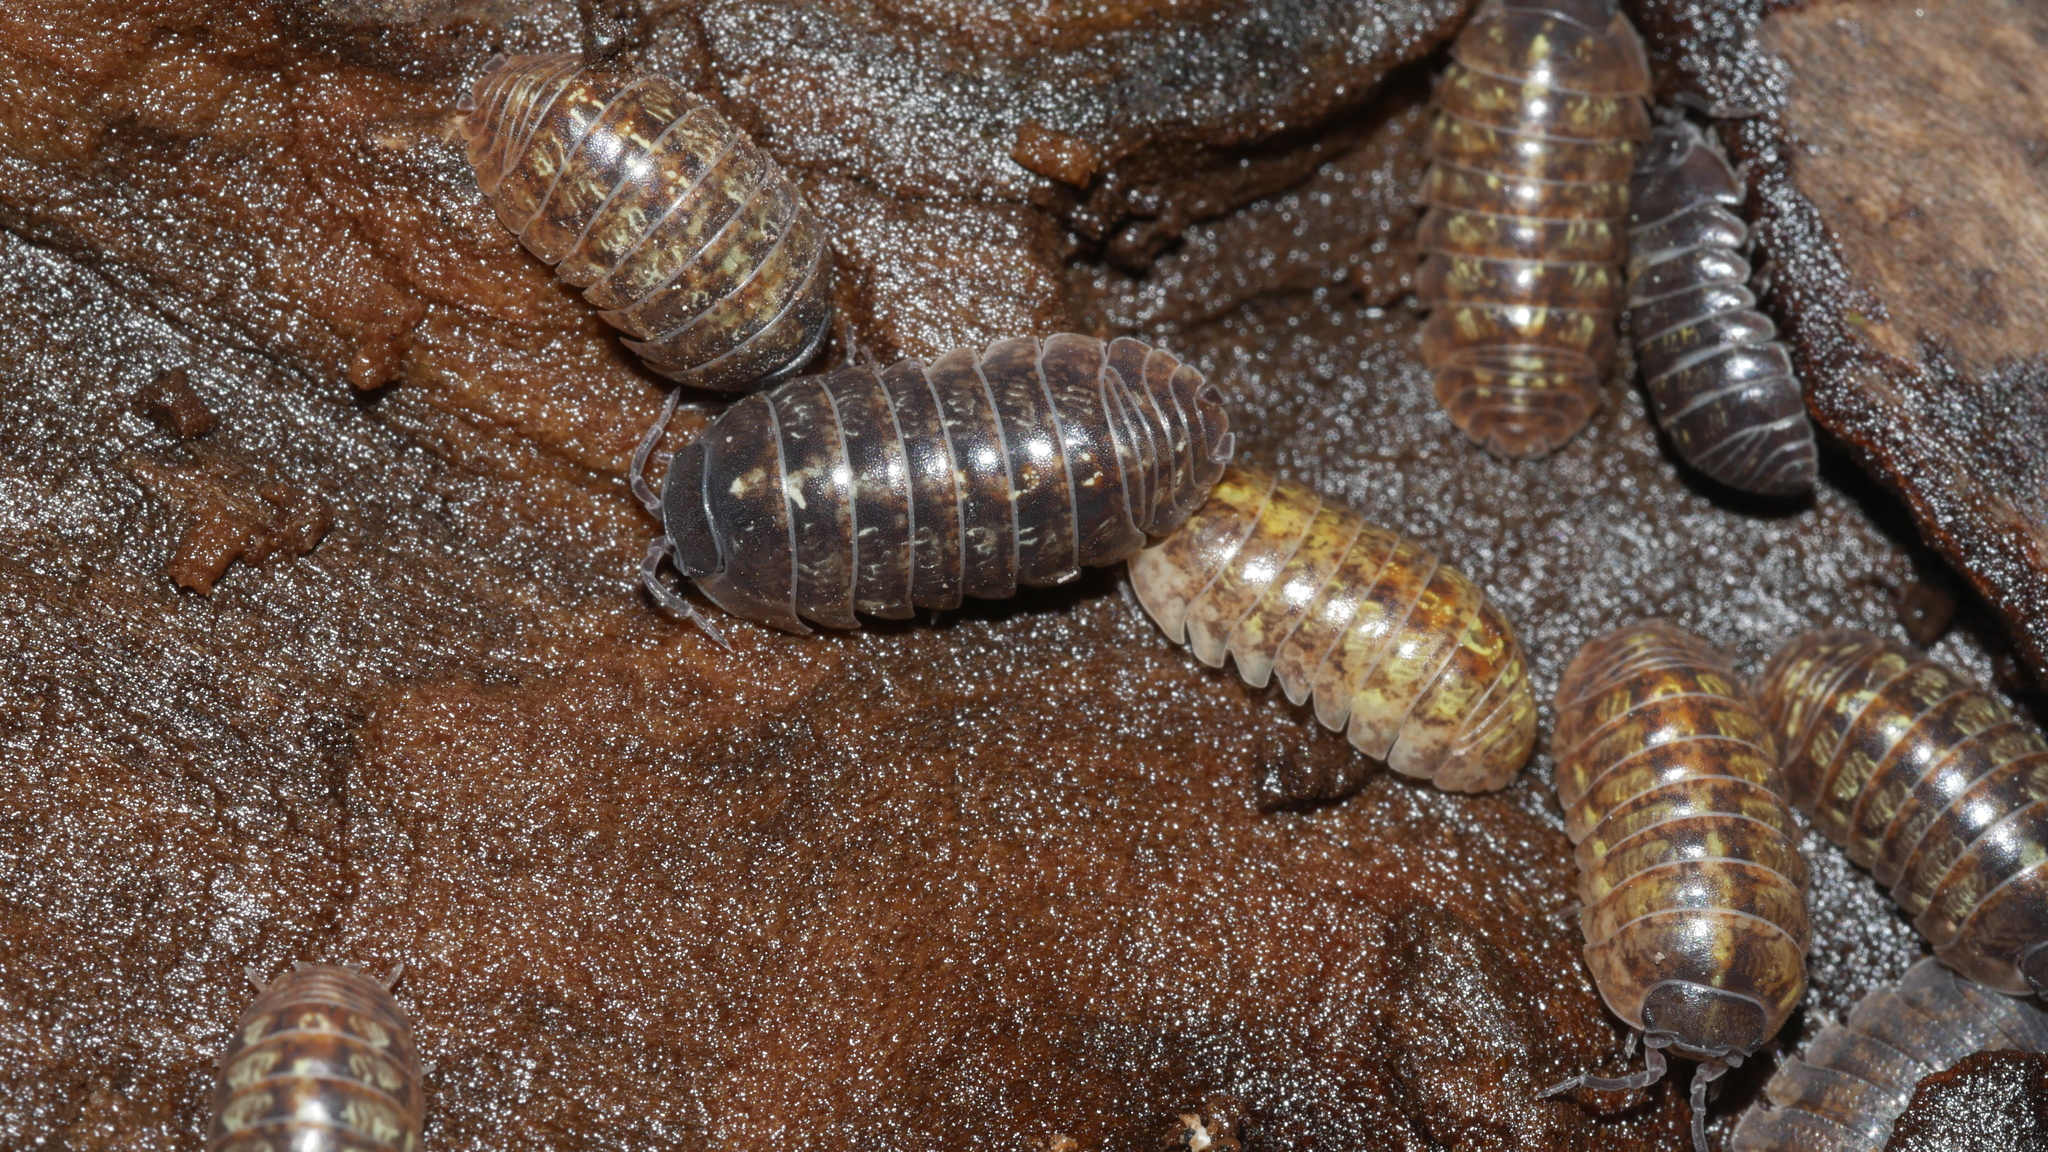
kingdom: Animalia
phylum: Arthropoda
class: Malacostraca
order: Isopoda
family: Armadillidiidae
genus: Armadillidium
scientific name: Armadillidium vulgare
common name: Common pill woodlouse
